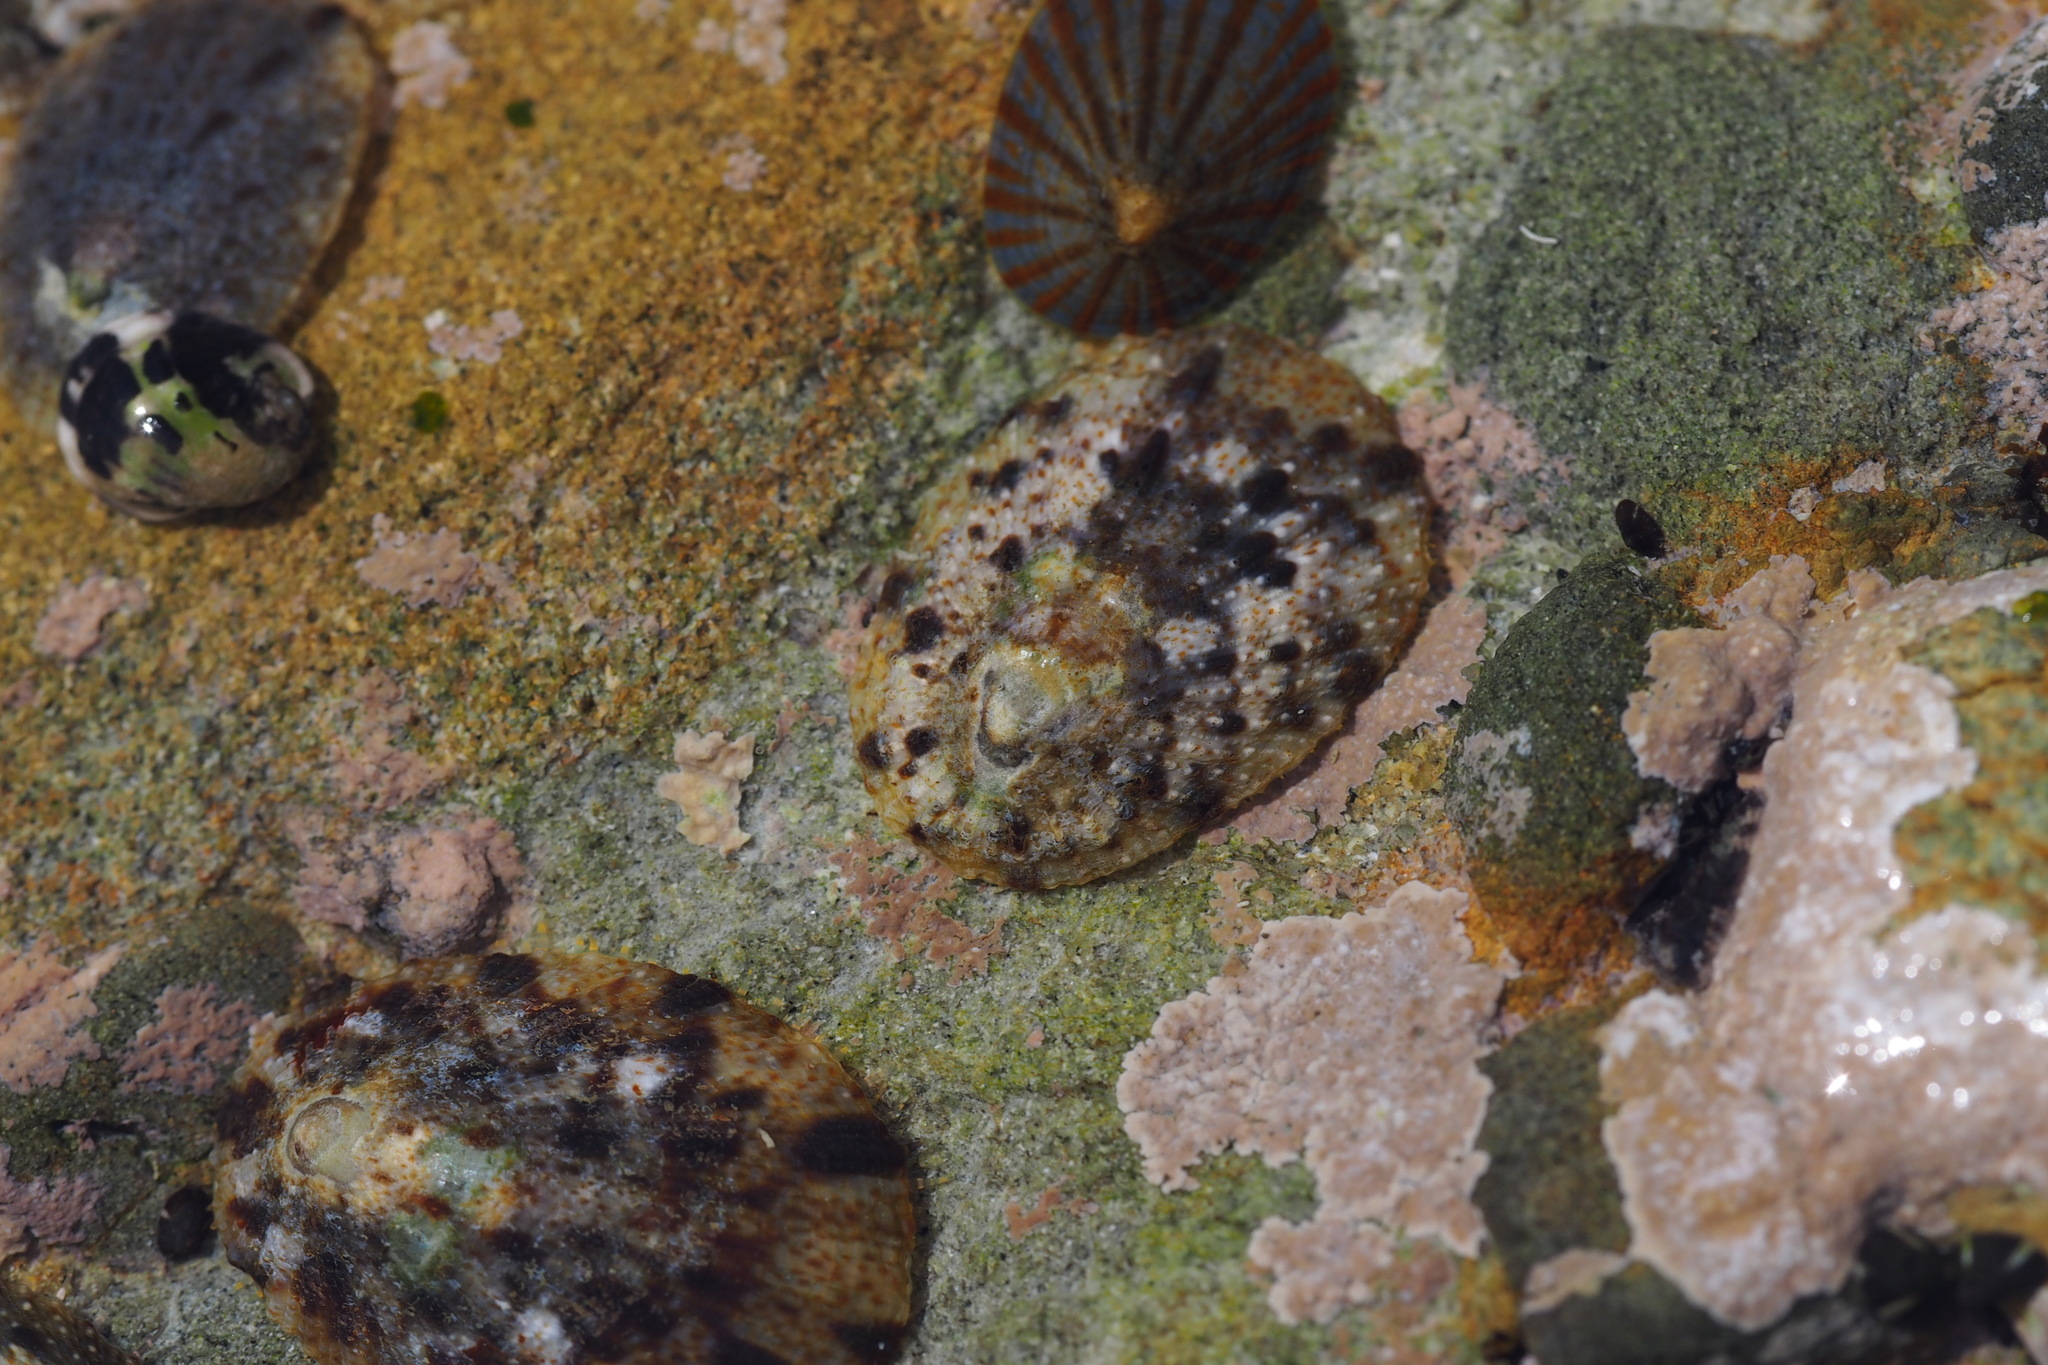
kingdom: Animalia
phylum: Mollusca
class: Gastropoda
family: Nacellidae
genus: Cellana
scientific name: Cellana toreuma
